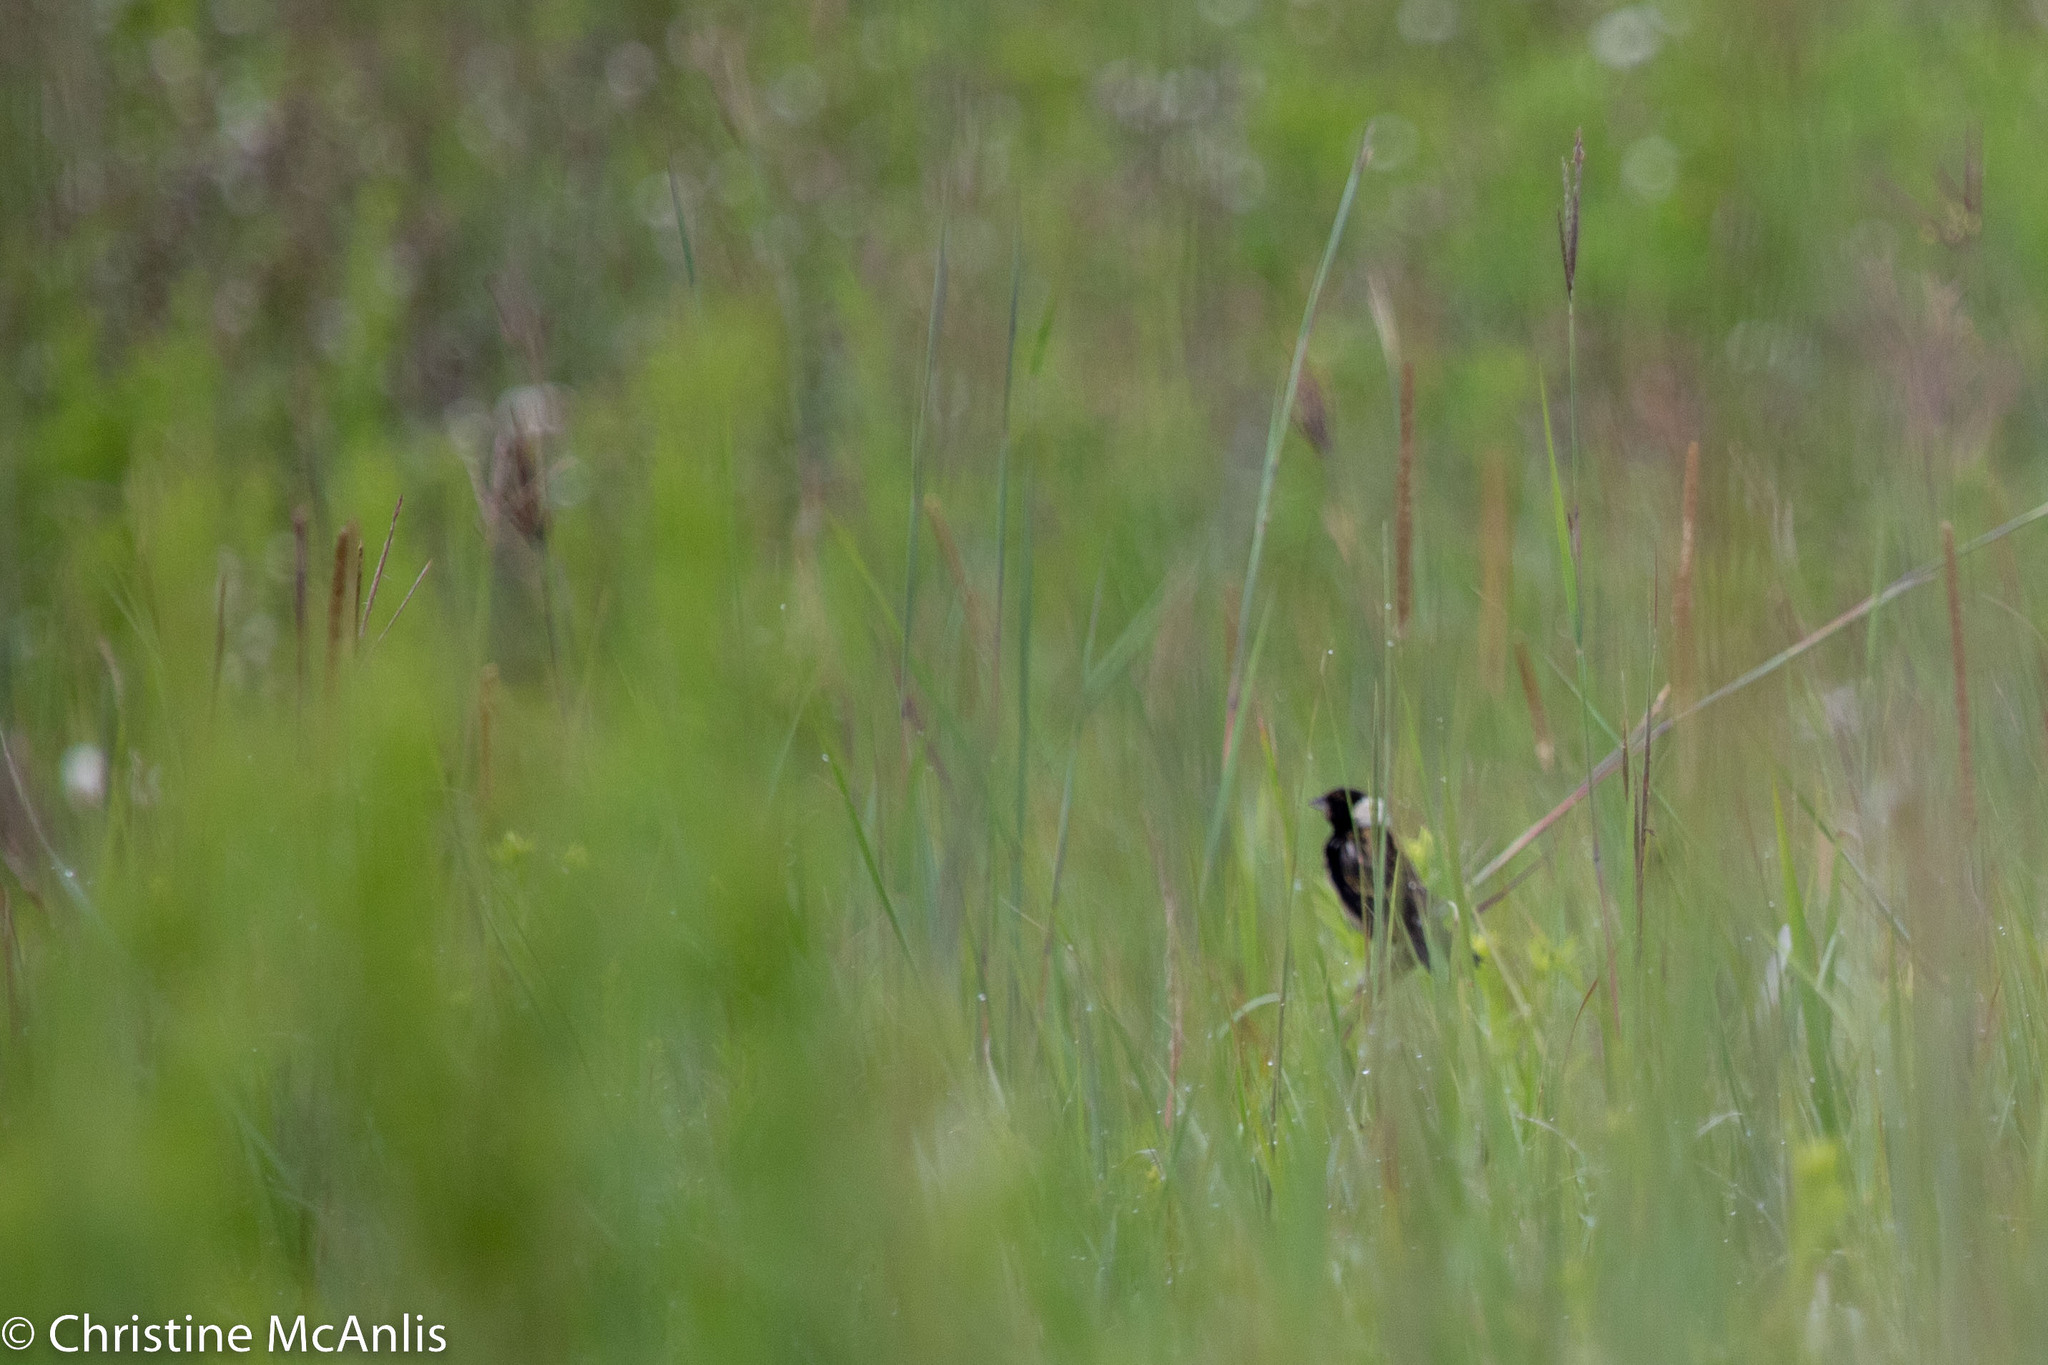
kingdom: Animalia
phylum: Chordata
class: Aves
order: Passeriformes
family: Icteridae
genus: Dolichonyx
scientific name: Dolichonyx oryzivorus
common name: Bobolink
